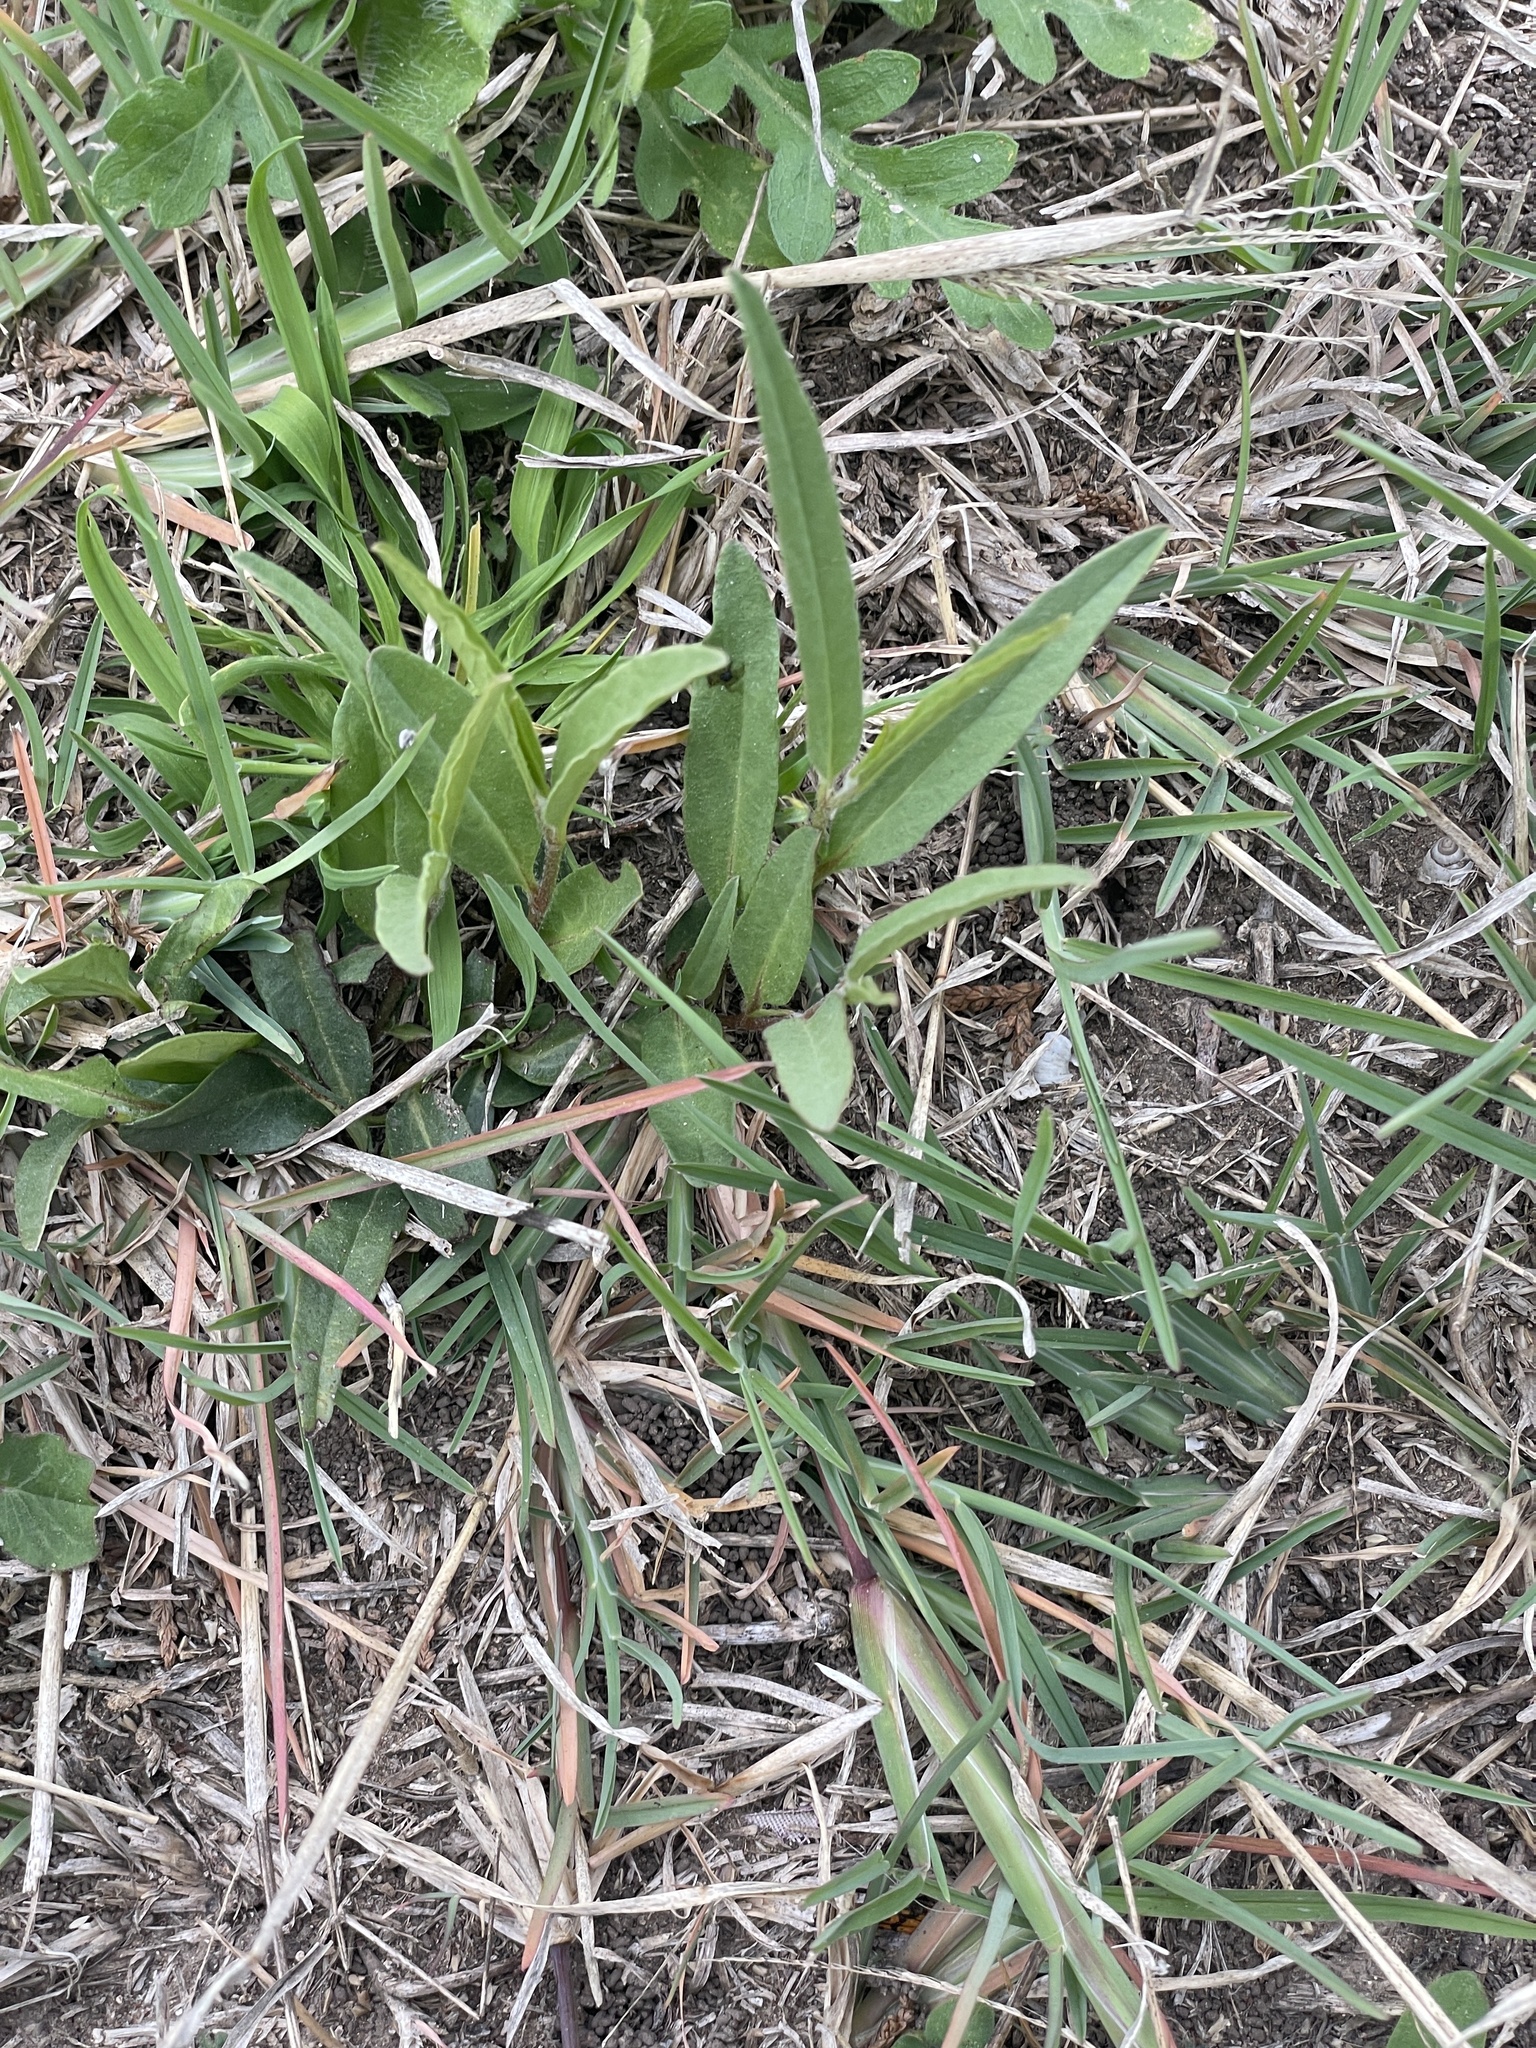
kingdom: Plantae
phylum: Tracheophyta
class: Magnoliopsida
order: Piperales
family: Aristolochiaceae
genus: Aristolochia
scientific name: Aristolochia erecta
